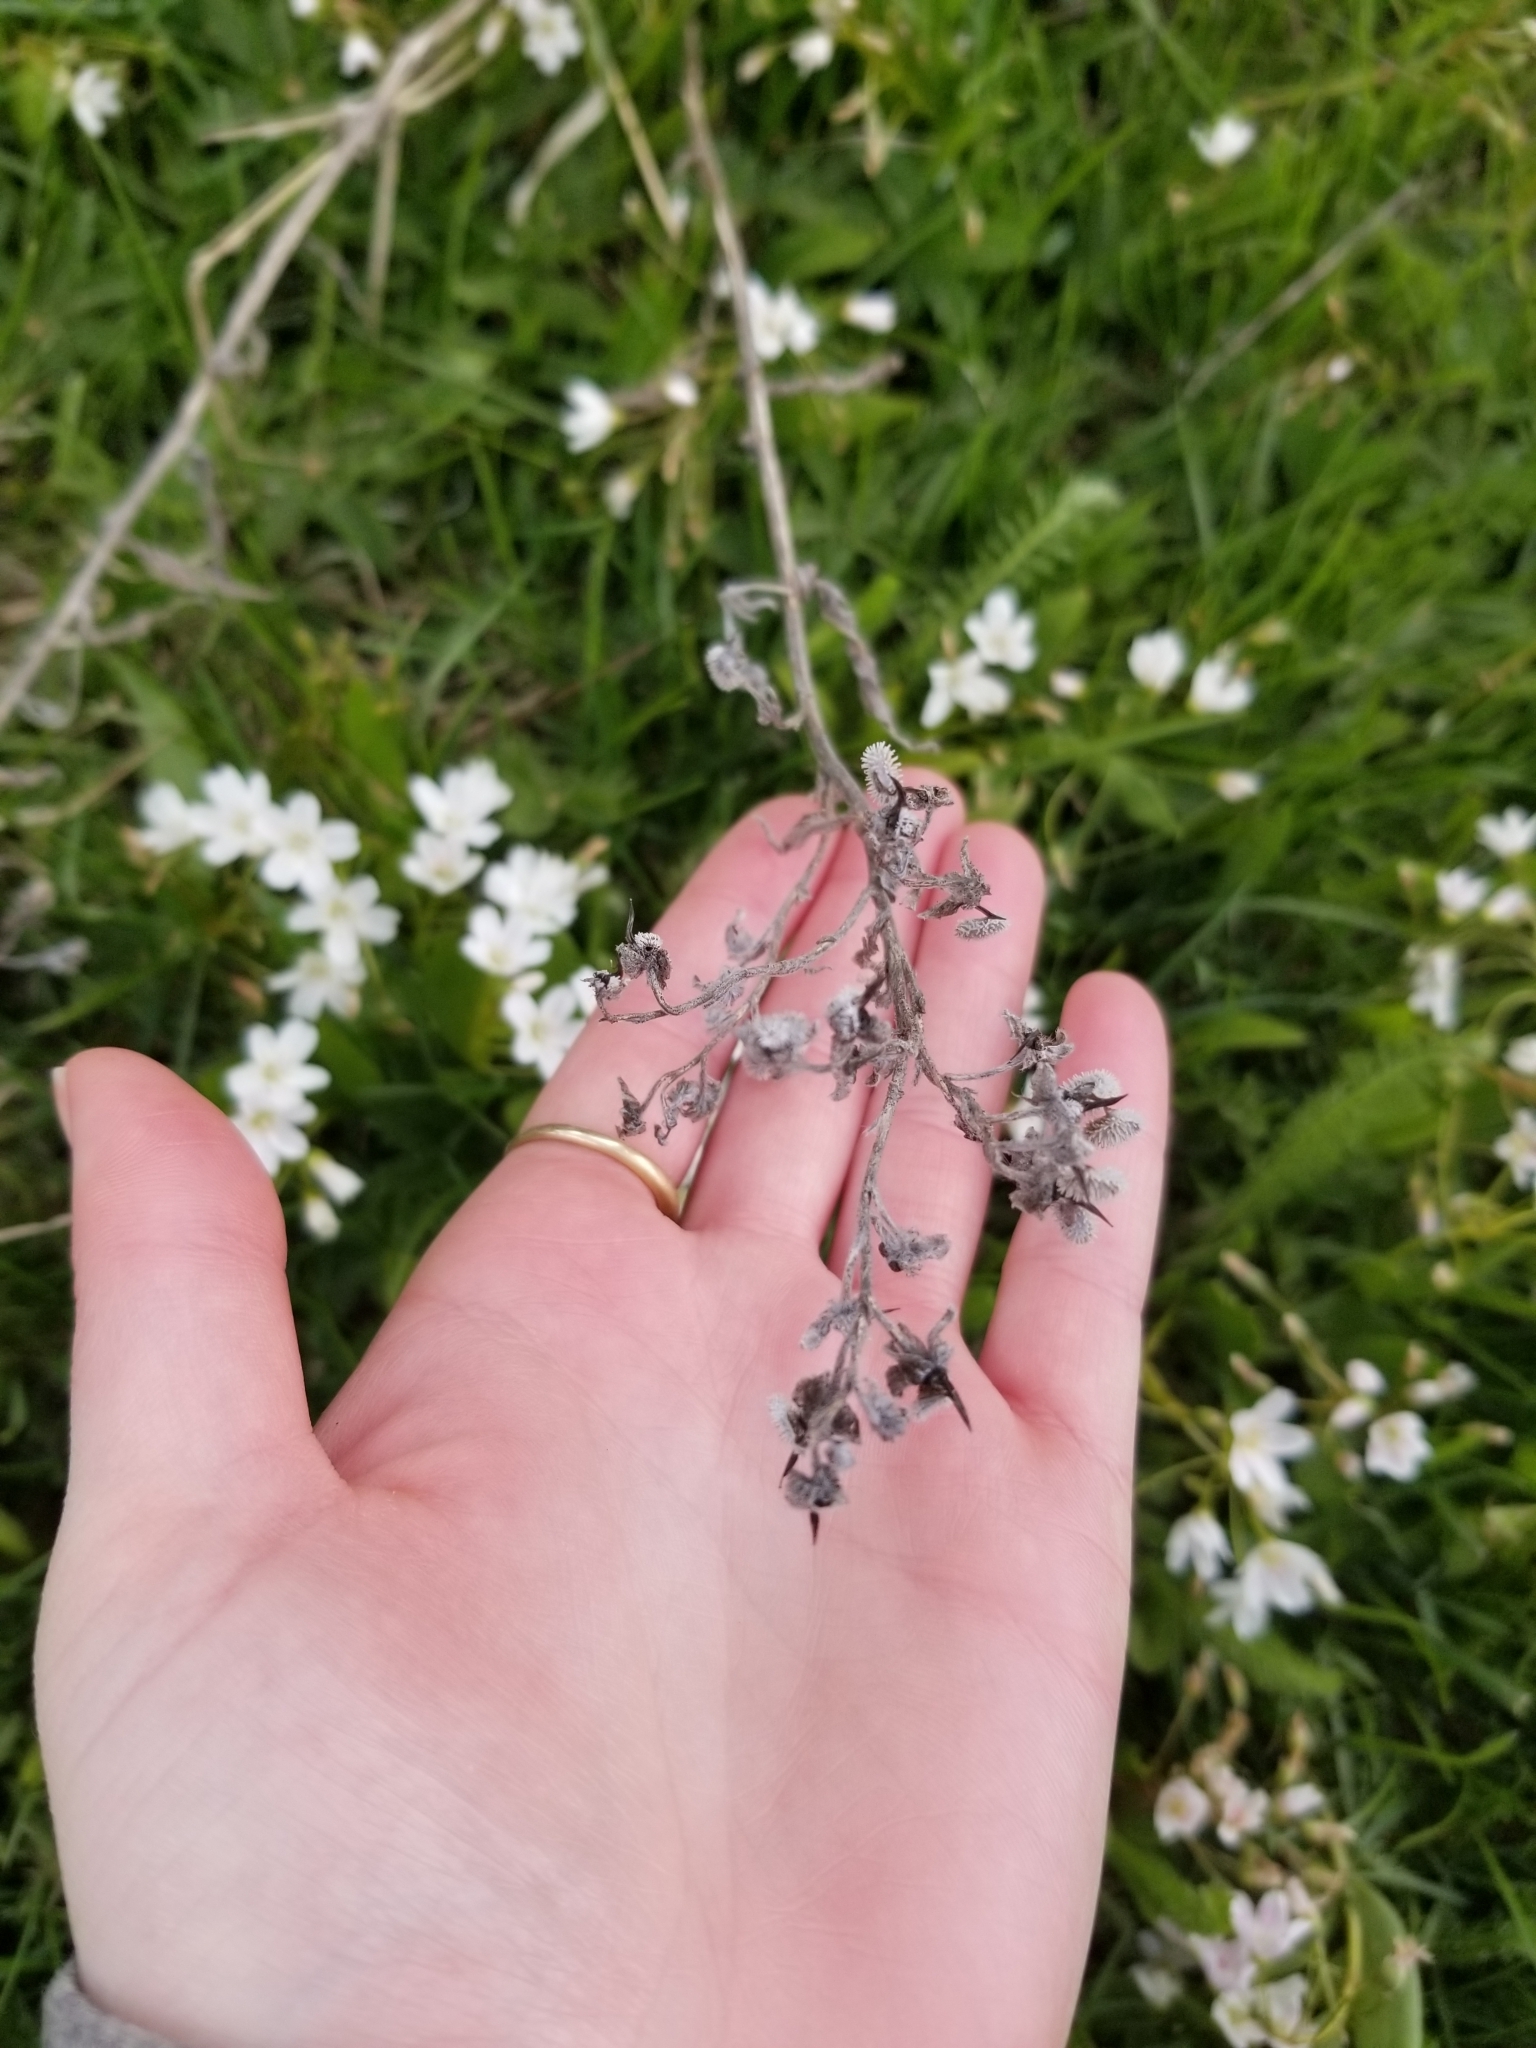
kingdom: Plantae
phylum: Tracheophyta
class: Magnoliopsida
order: Boraginales
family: Boraginaceae
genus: Cynoglossum
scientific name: Cynoglossum officinale
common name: Hound's-tongue
